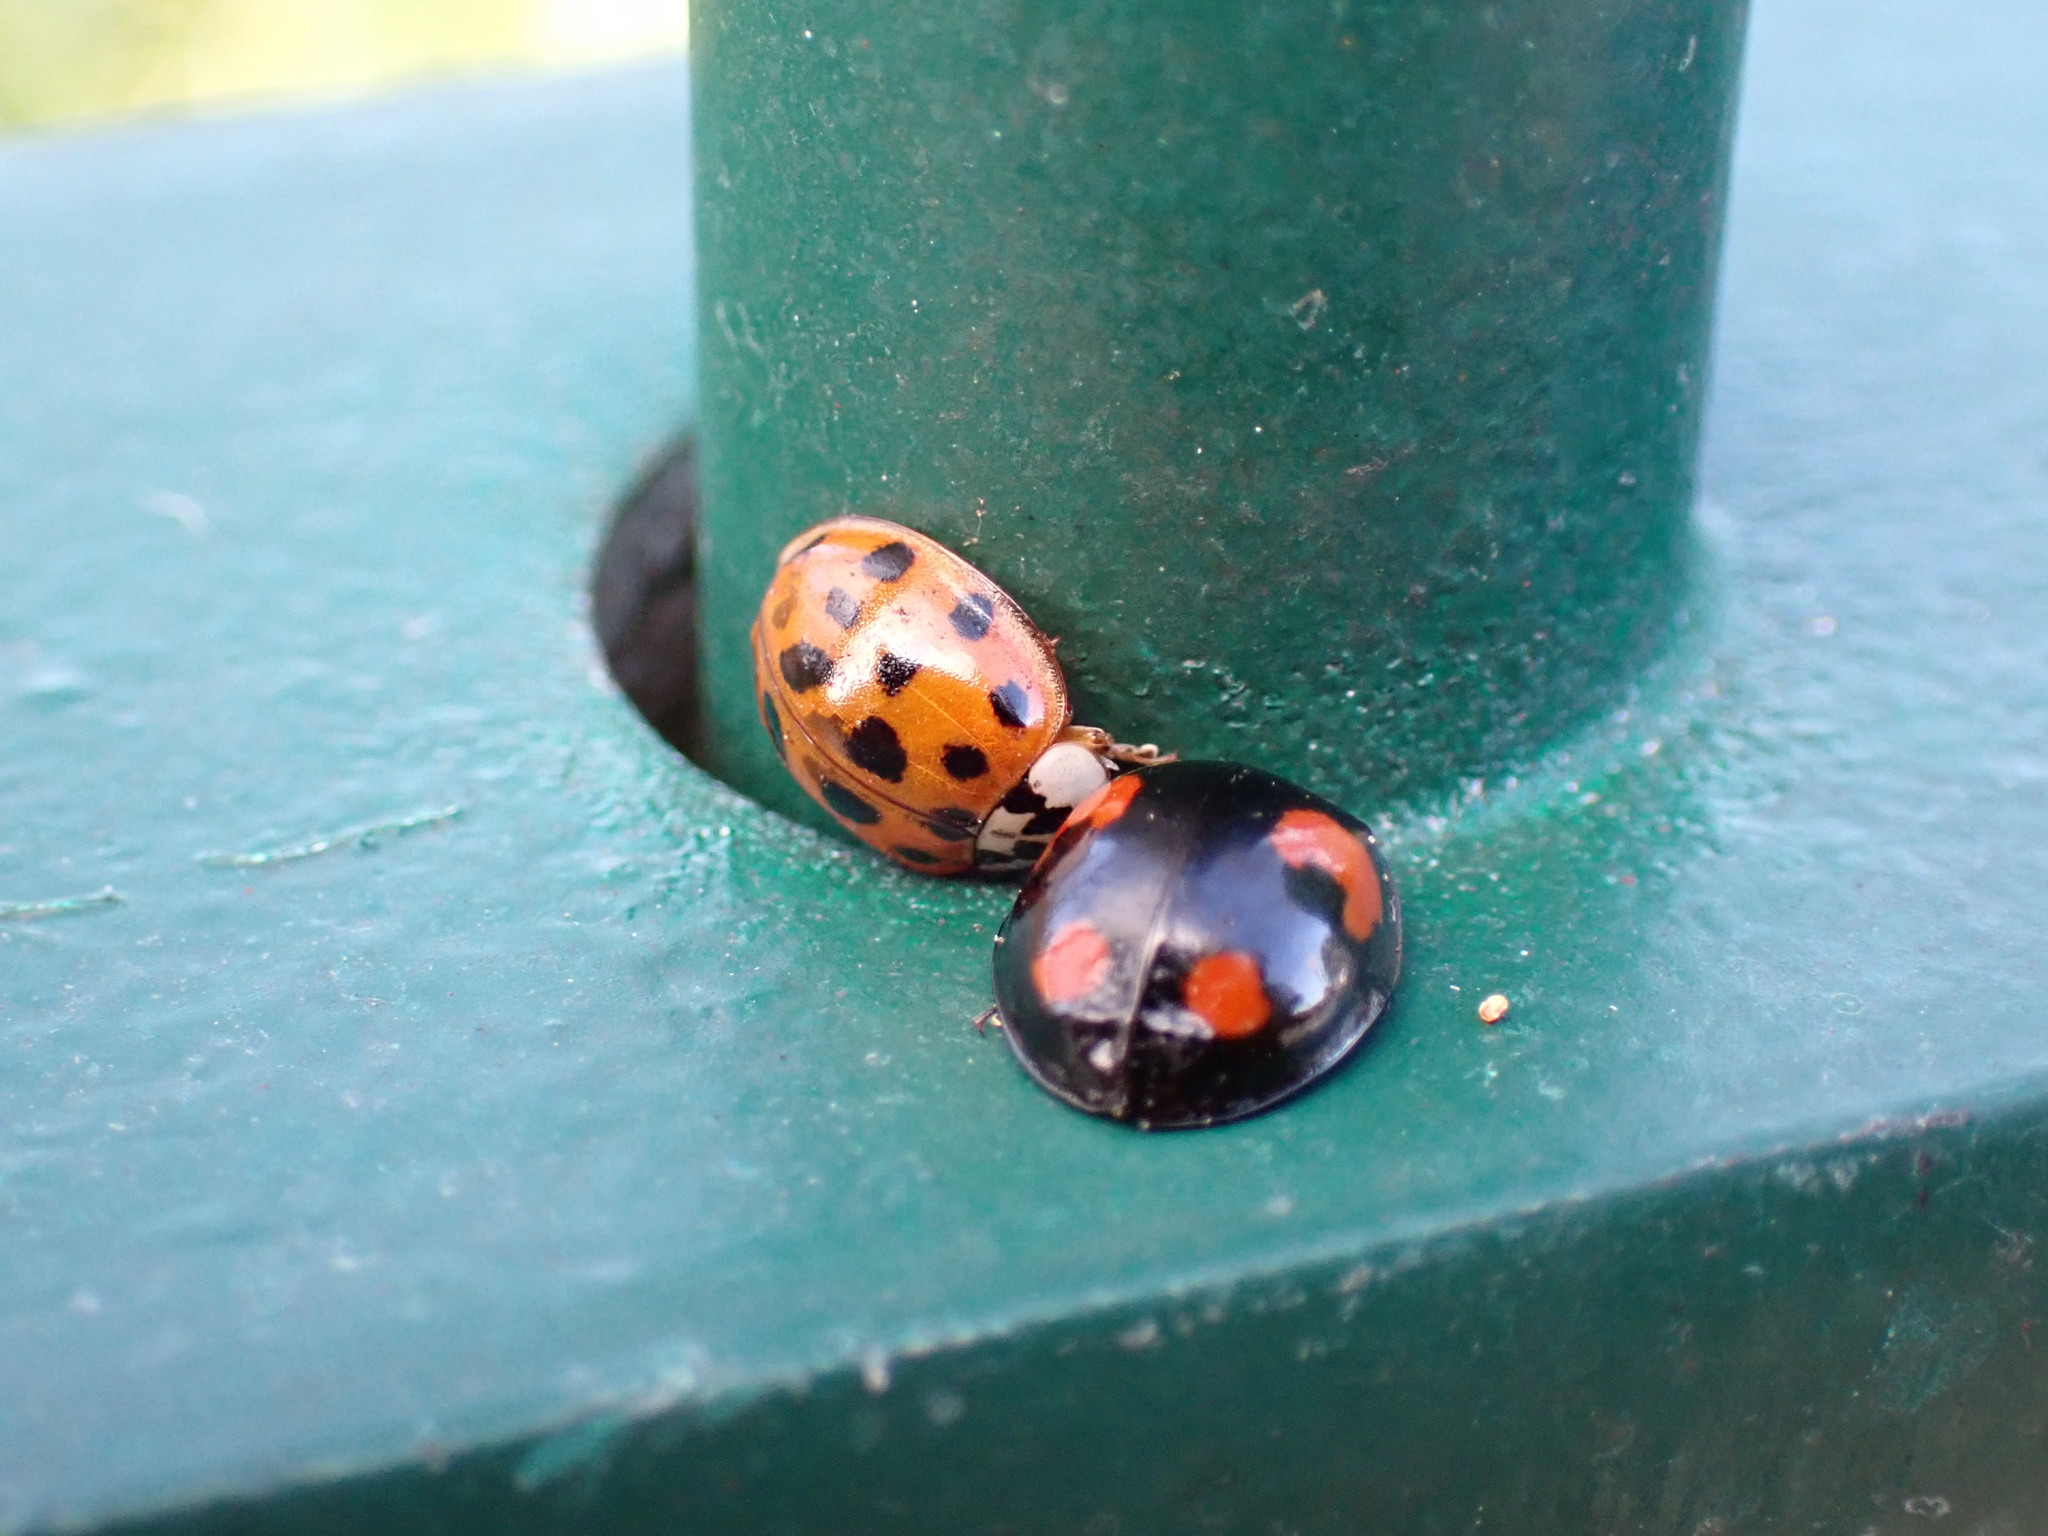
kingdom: Animalia
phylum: Arthropoda
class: Insecta
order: Coleoptera
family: Coccinellidae
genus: Harmonia
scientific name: Harmonia axyridis
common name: Harlequin ladybird
